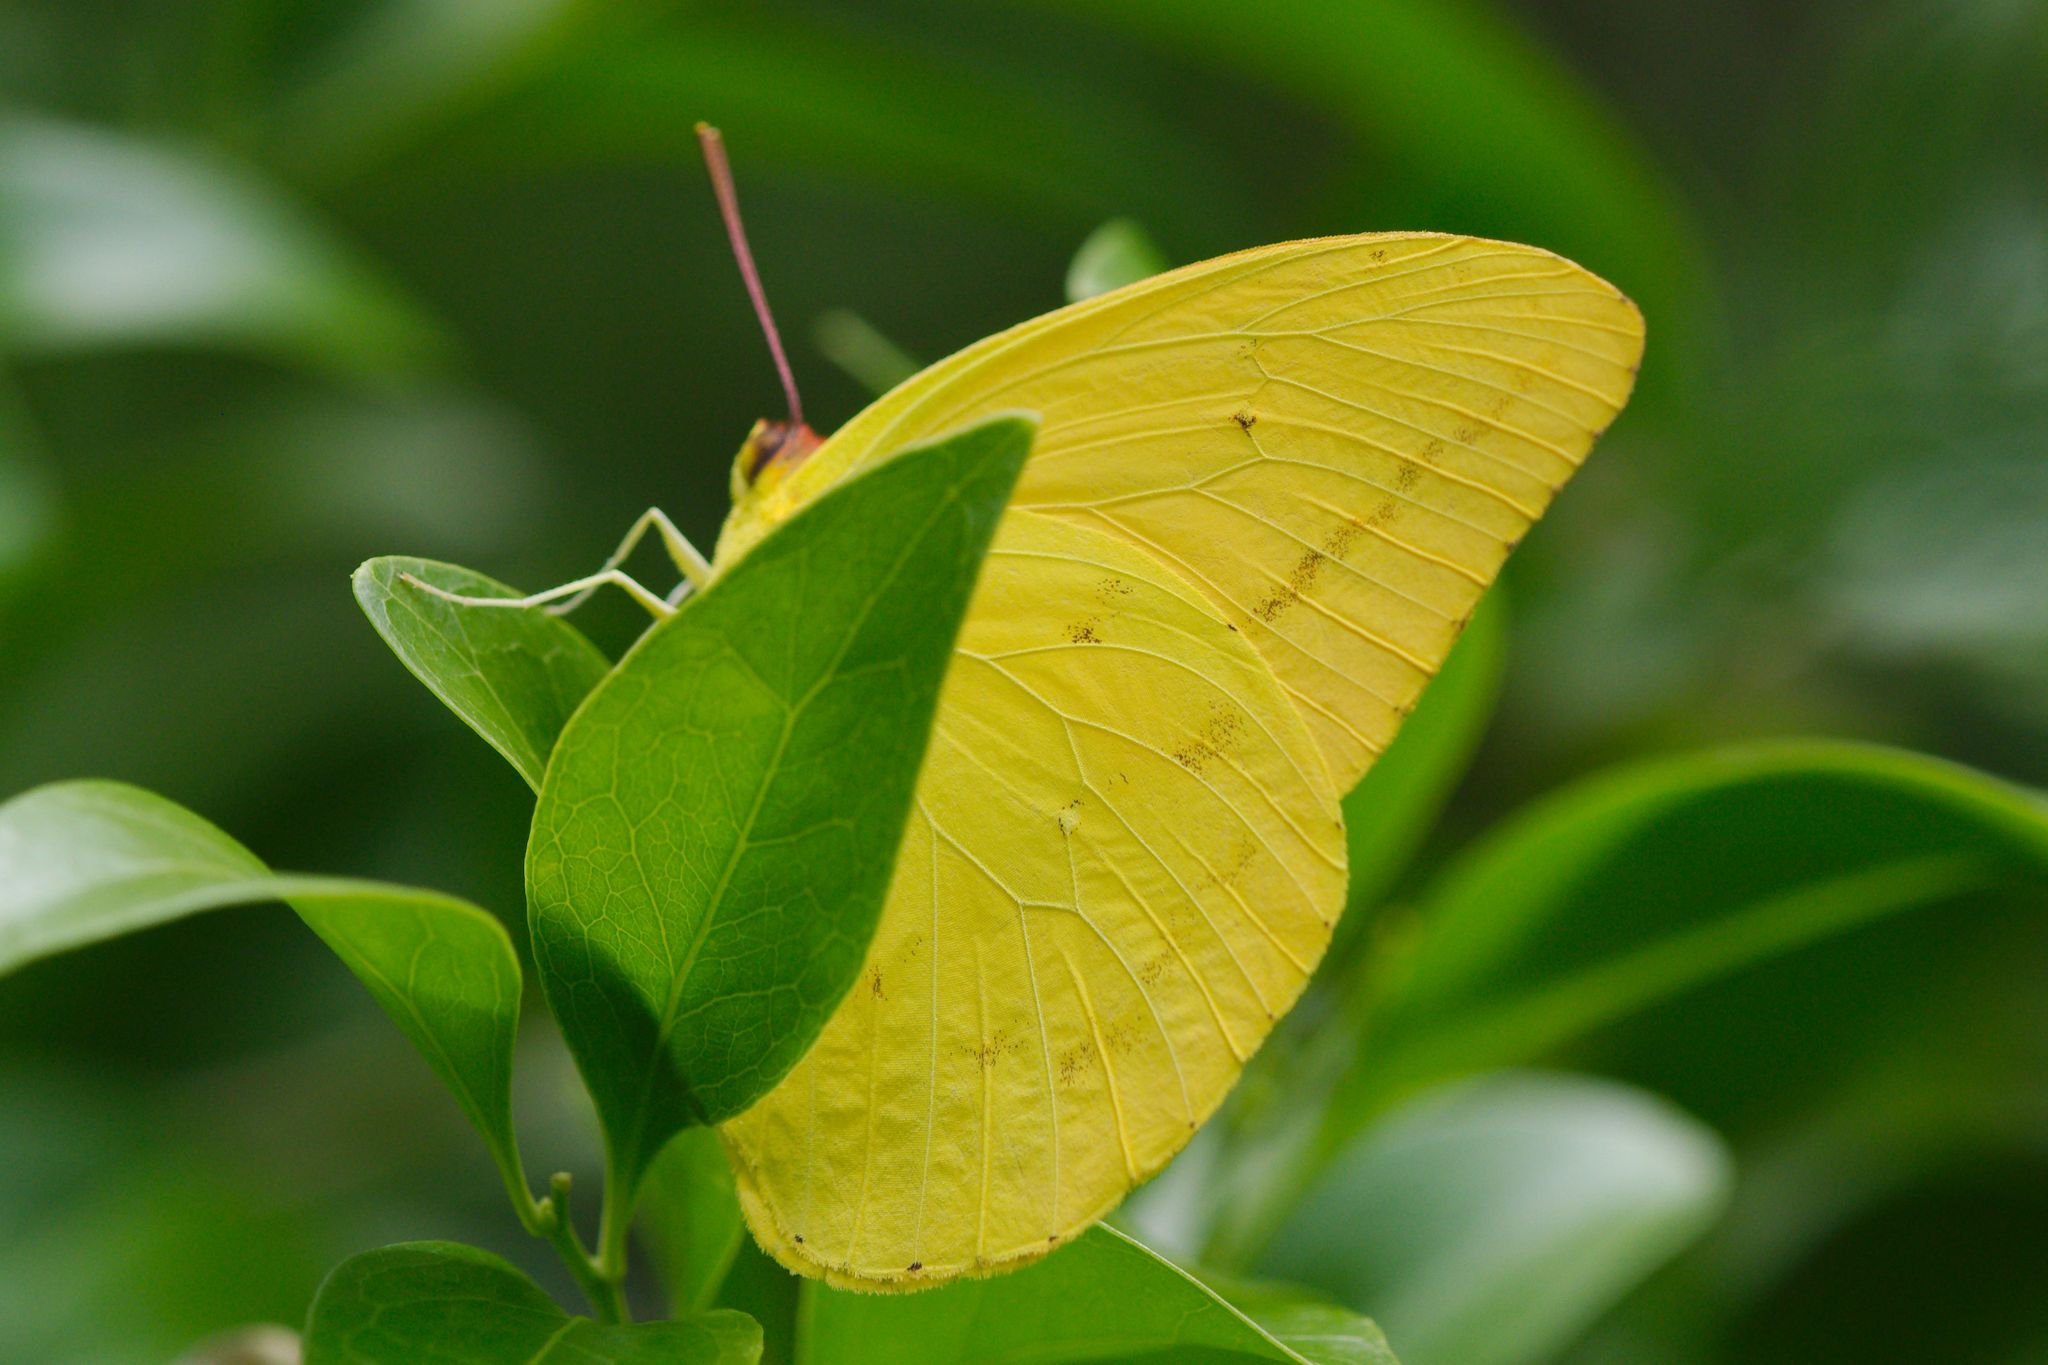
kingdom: Animalia
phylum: Arthropoda
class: Insecta
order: Lepidoptera
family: Pieridae
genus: Phoebis
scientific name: Phoebis agarithe
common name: Large orange sulphur
